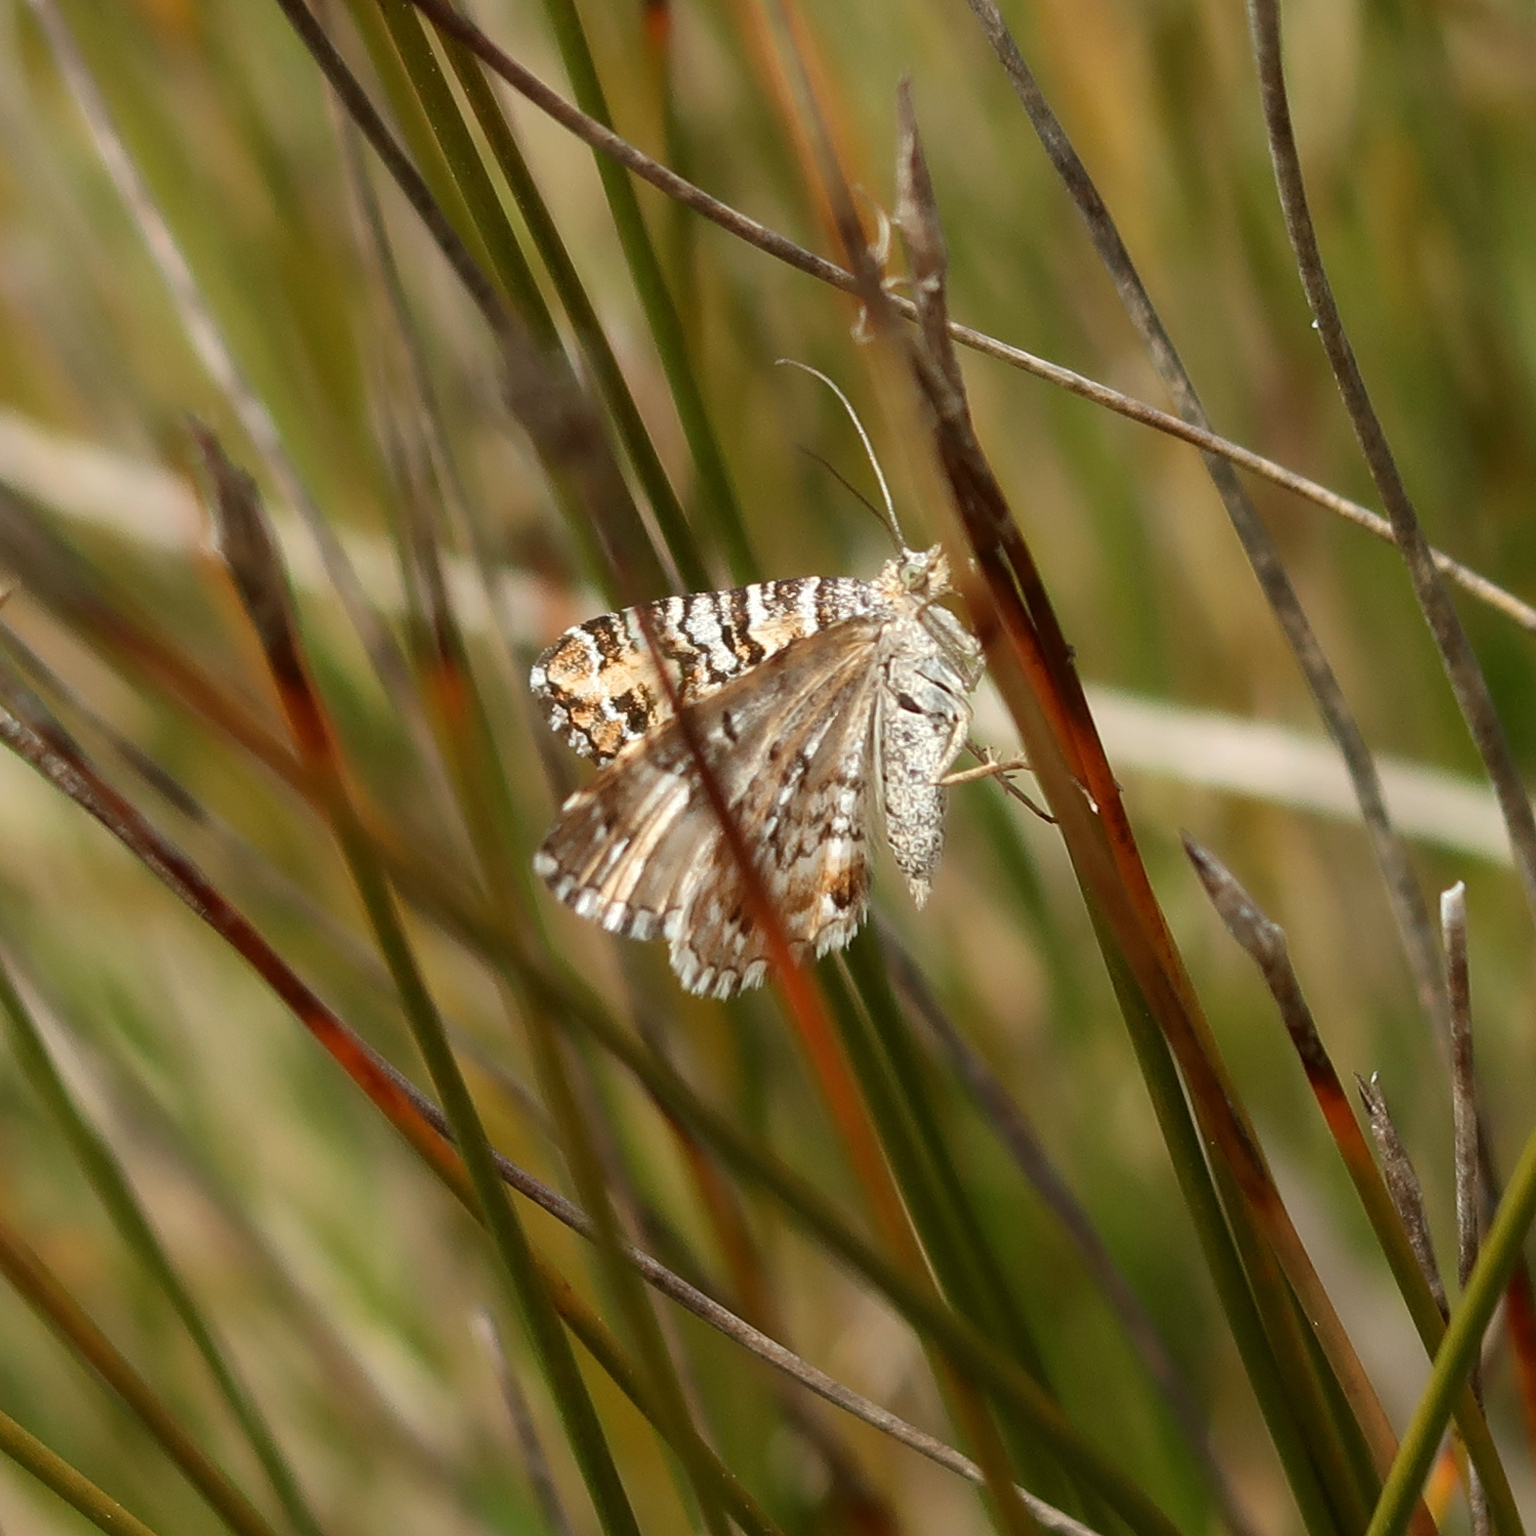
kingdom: Animalia
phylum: Arthropoda
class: Insecta
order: Lepidoptera
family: Geometridae
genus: Chrysolarentia
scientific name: Chrysolarentia rhynchota
